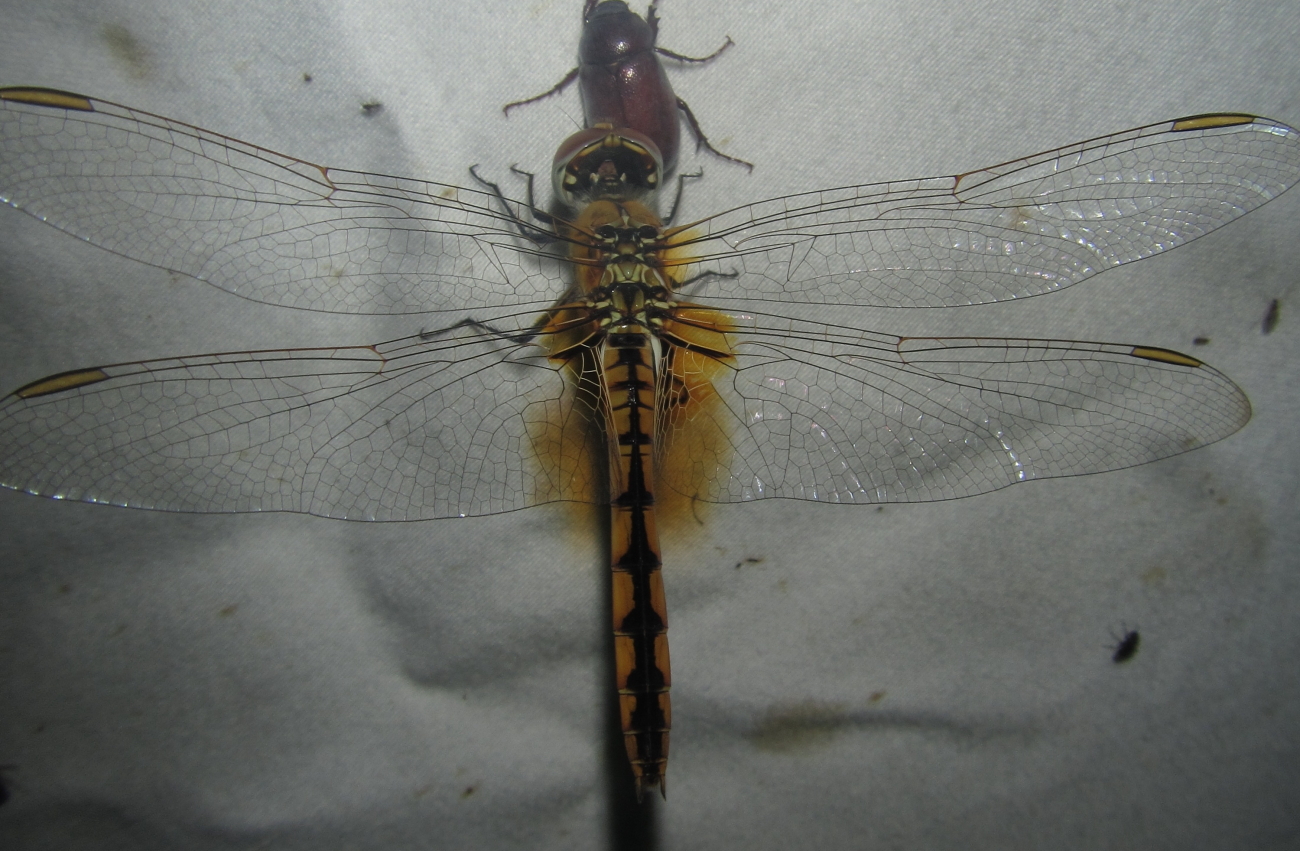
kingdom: Animalia
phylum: Arthropoda
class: Insecta
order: Odonata
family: Libellulidae
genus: Urothemis
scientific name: Urothemis edwardsii
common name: Blue basker
